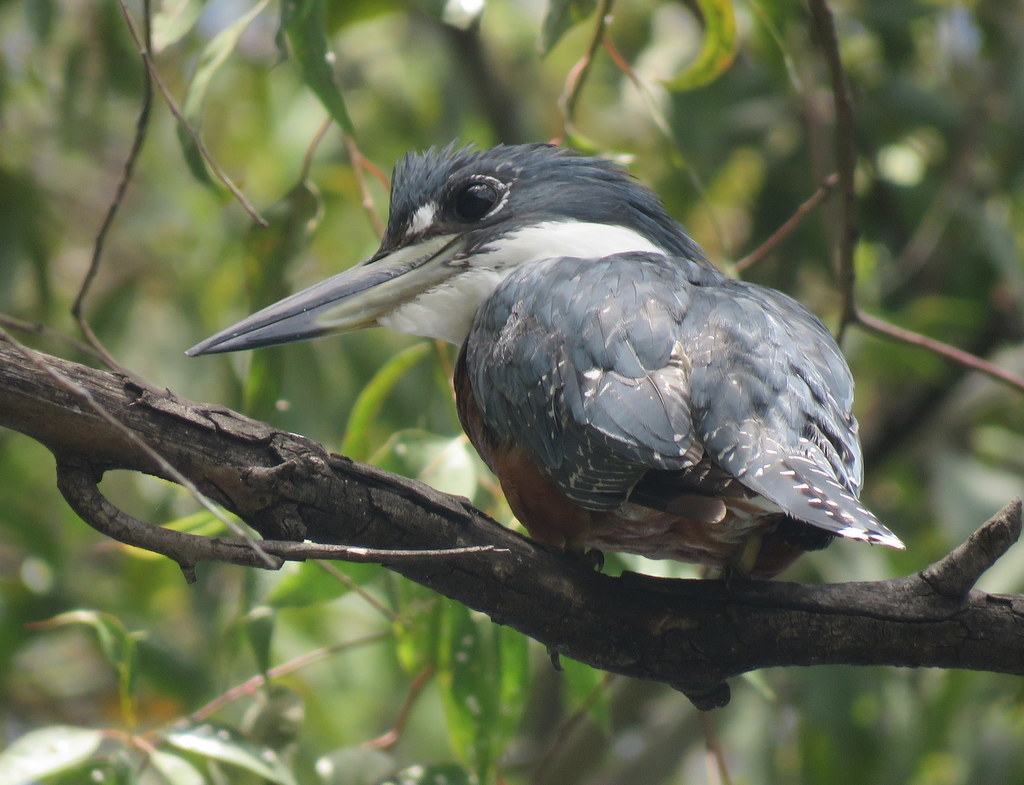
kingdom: Animalia
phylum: Chordata
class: Aves
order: Coraciiformes
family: Alcedinidae
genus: Megaceryle
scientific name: Megaceryle torquata
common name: Ringed kingfisher
